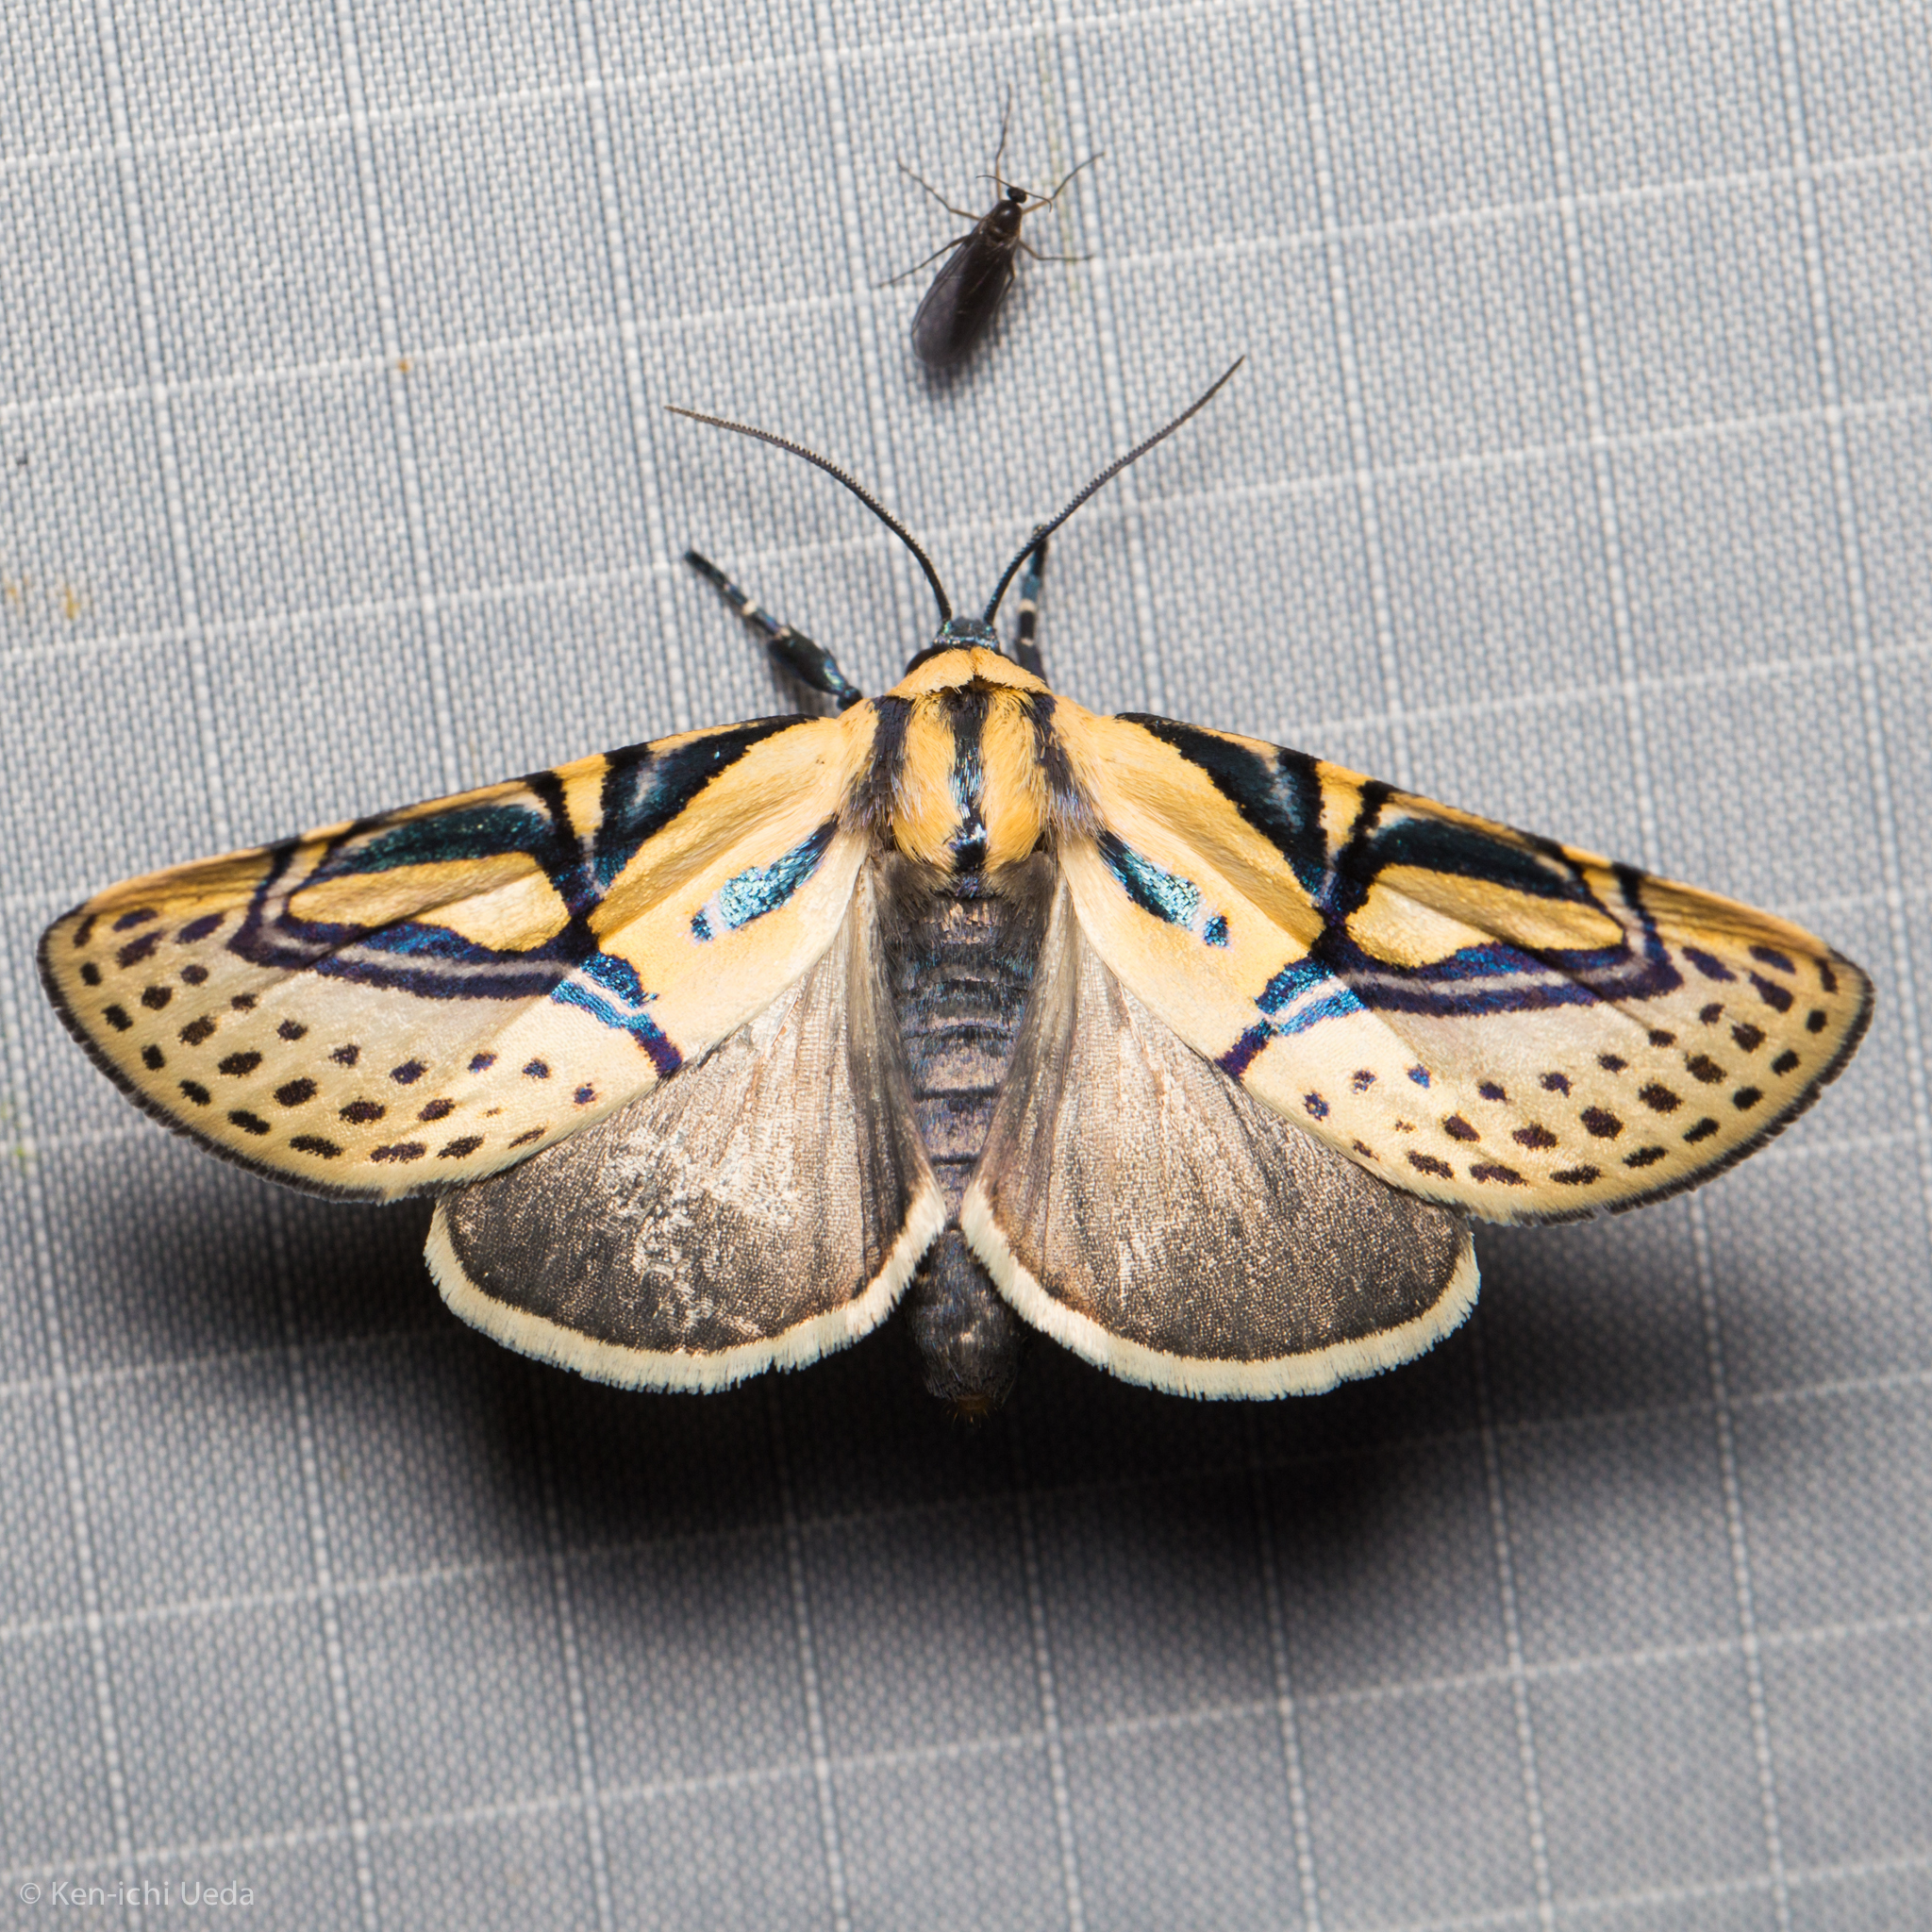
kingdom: Animalia
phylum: Arthropoda
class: Insecta
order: Lepidoptera
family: Erebidae
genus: Diphthera
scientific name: Diphthera festiva
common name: Hieroglyphic moth
